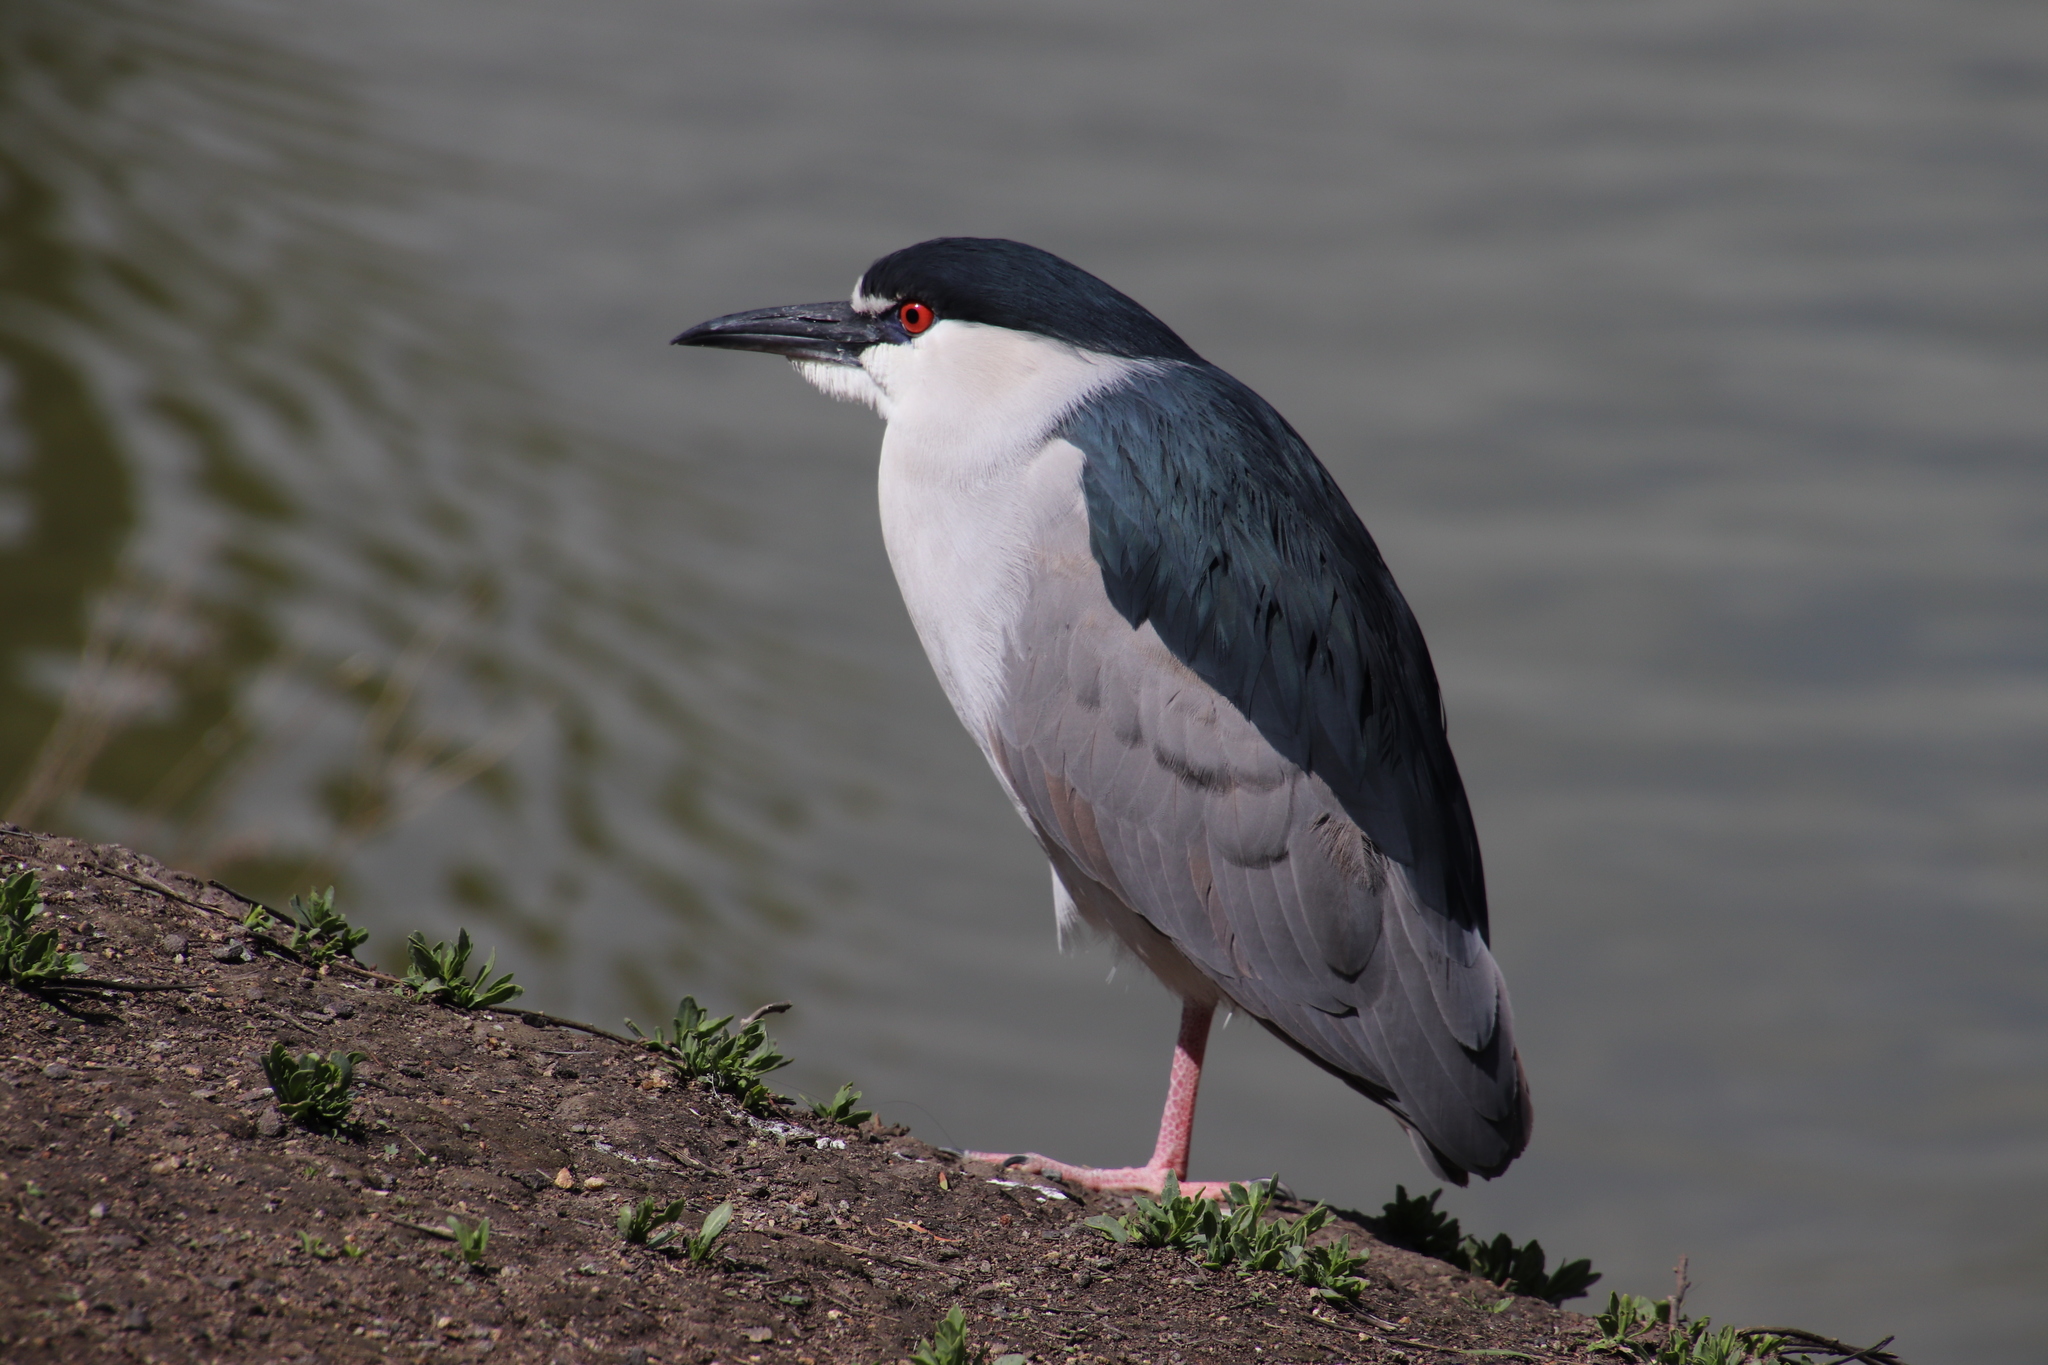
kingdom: Animalia
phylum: Chordata
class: Aves
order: Pelecaniformes
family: Ardeidae
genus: Nycticorax
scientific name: Nycticorax nycticorax
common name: Black-crowned night heron
